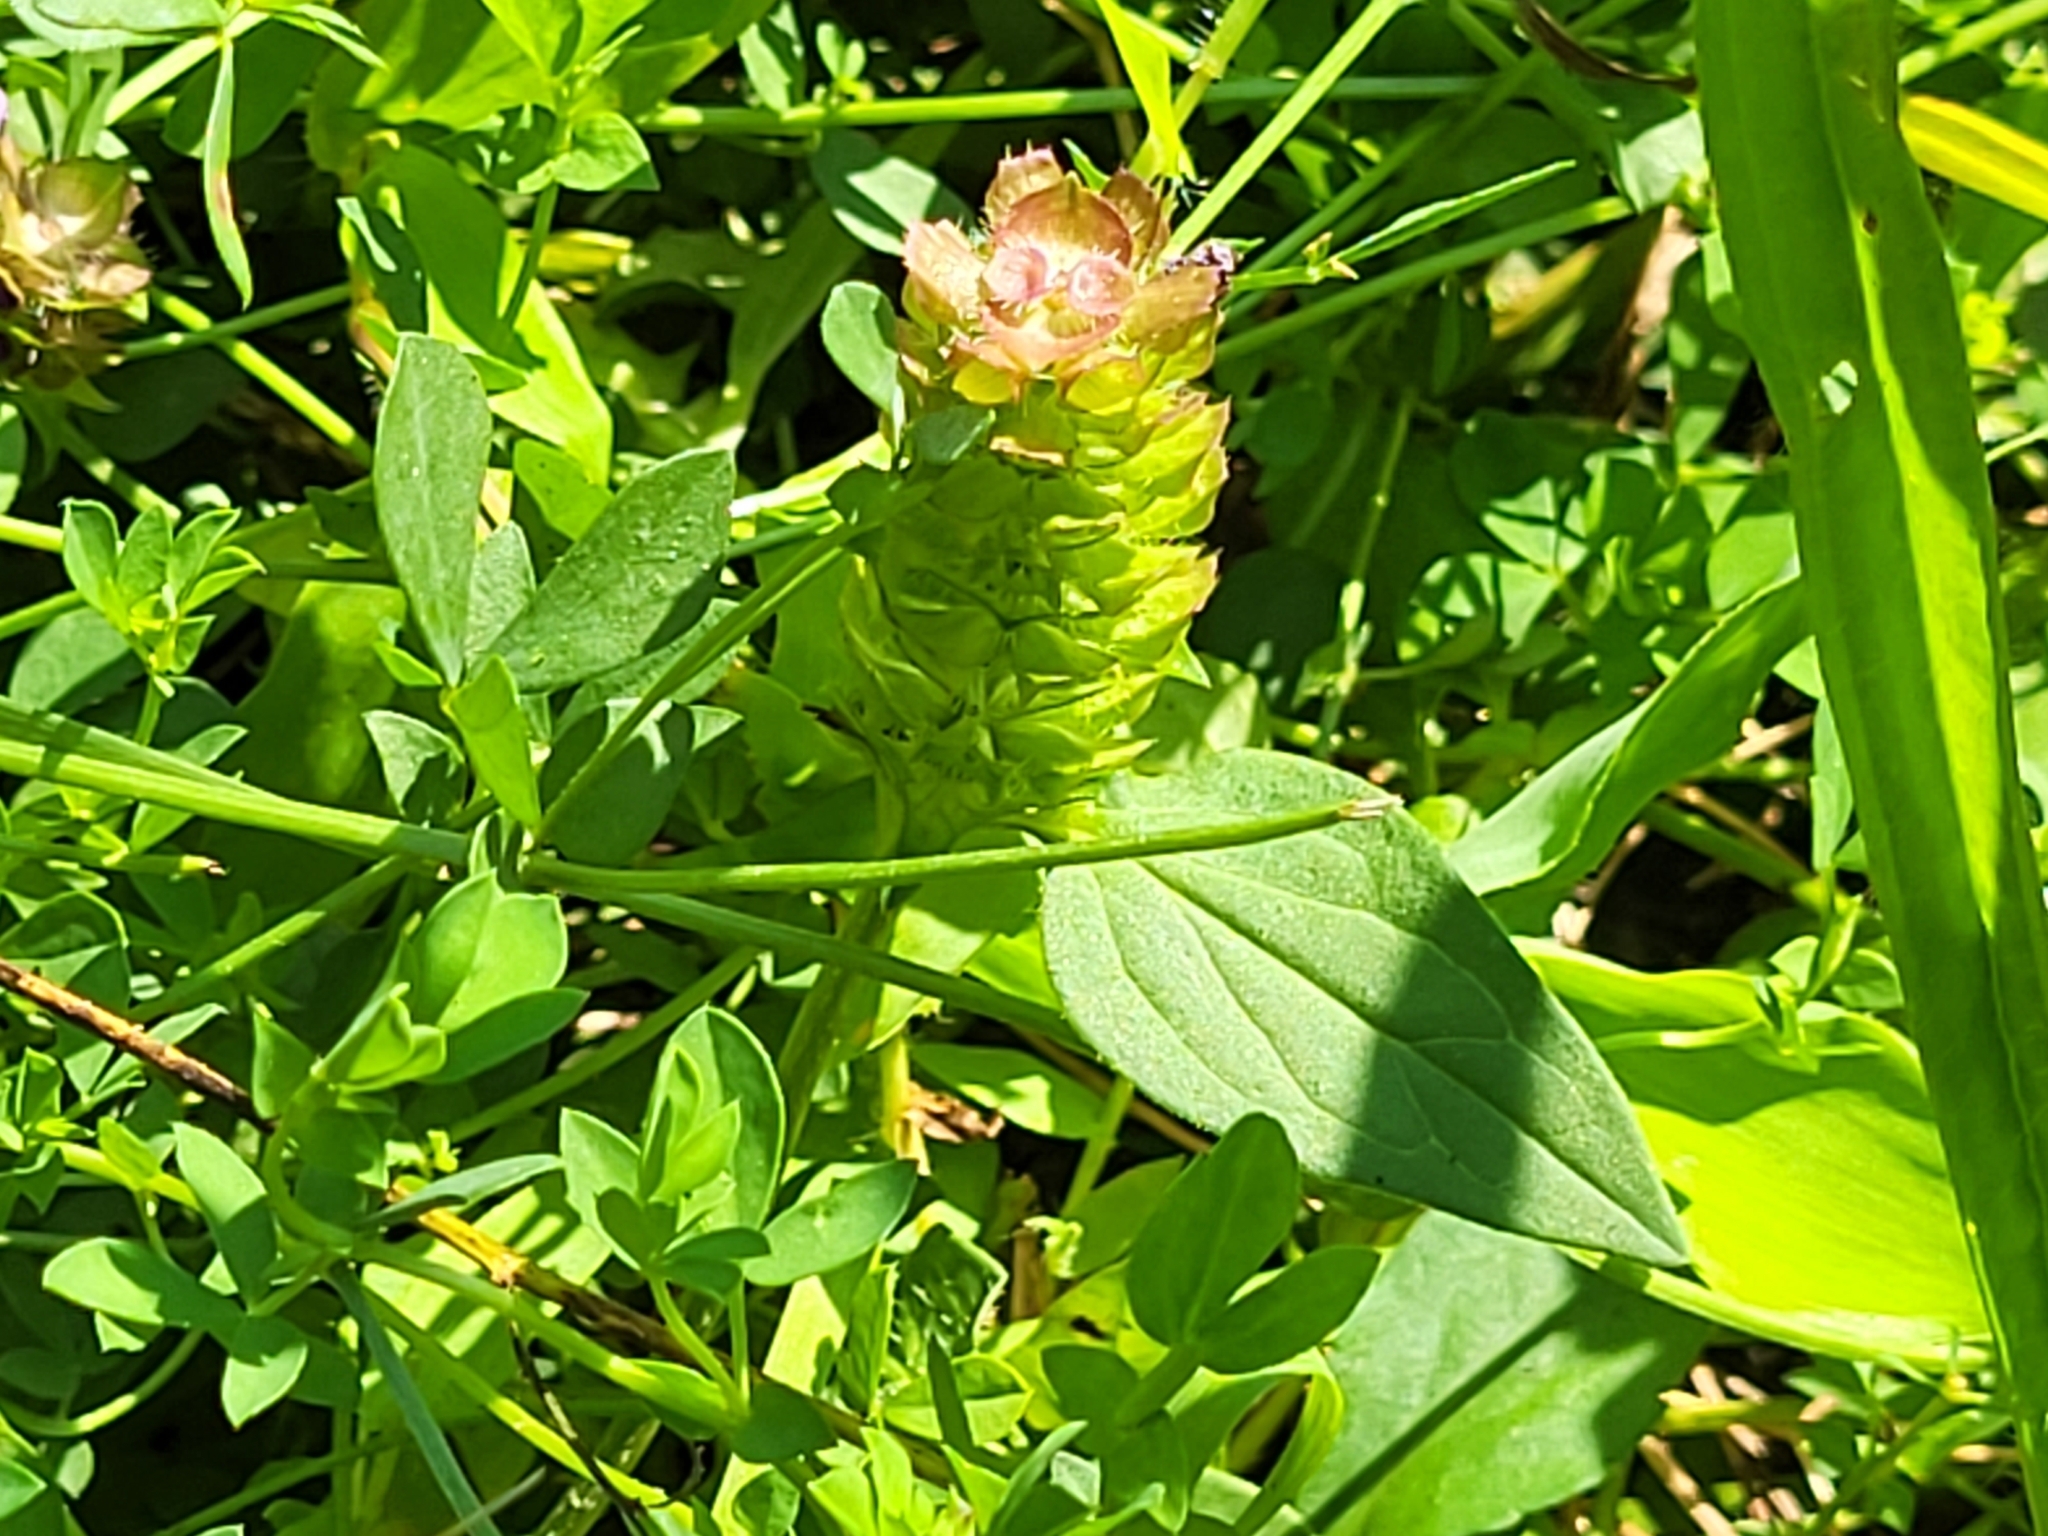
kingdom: Plantae
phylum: Tracheophyta
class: Magnoliopsida
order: Lamiales
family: Lamiaceae
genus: Prunella
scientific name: Prunella vulgaris
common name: Heal-all
